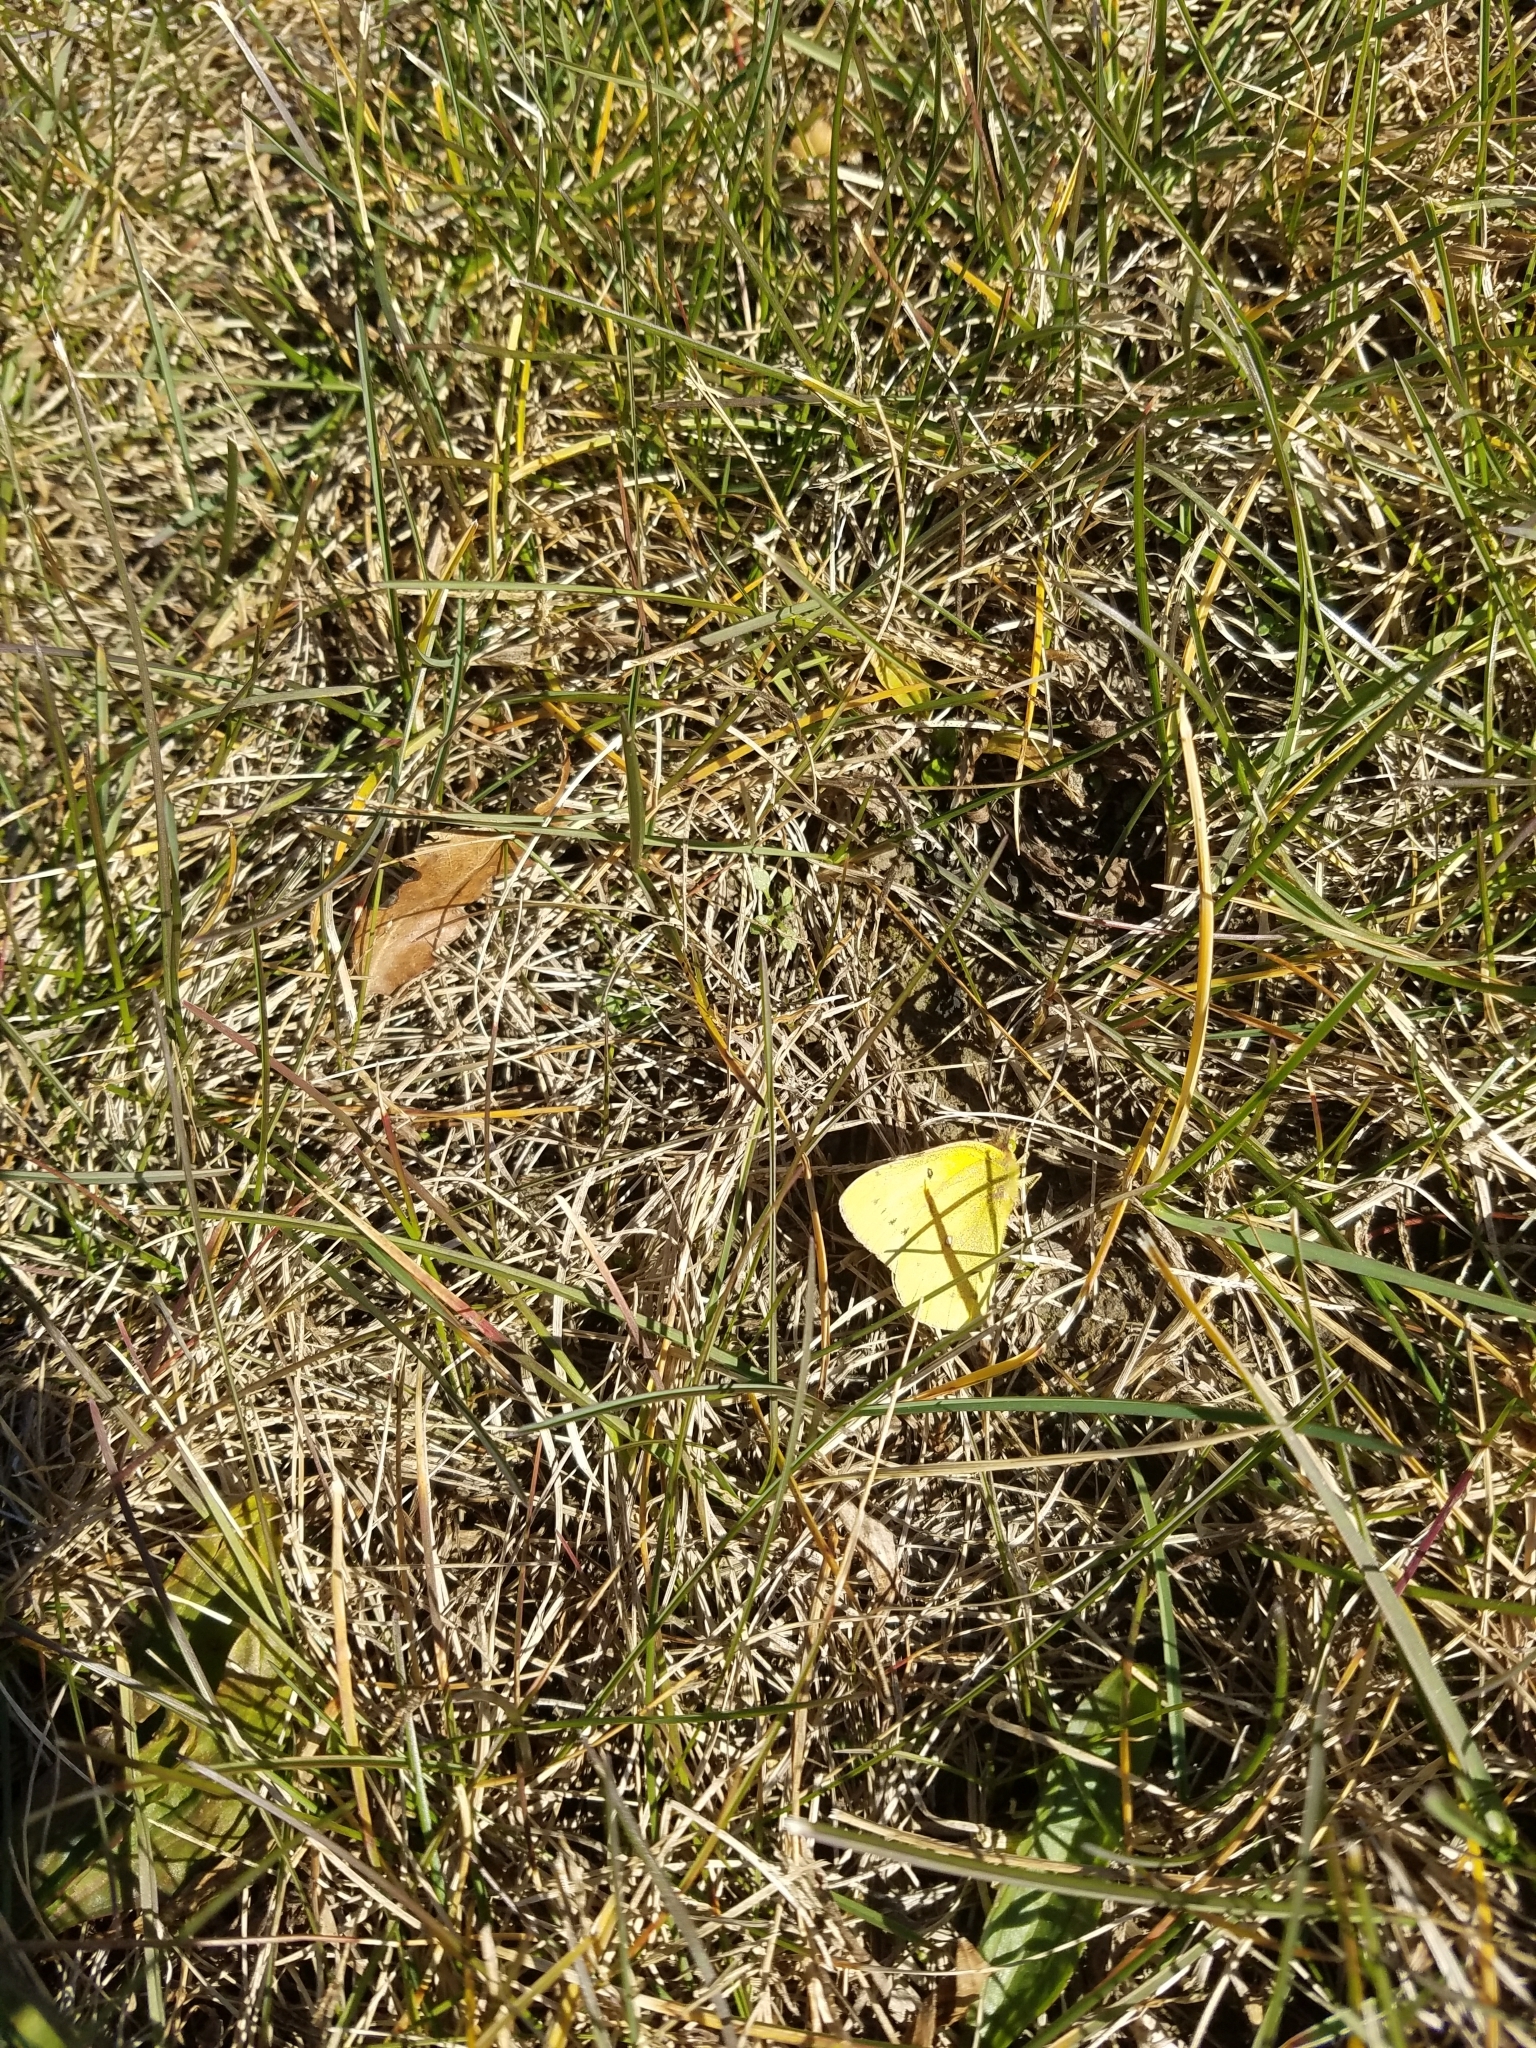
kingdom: Animalia
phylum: Arthropoda
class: Insecta
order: Lepidoptera
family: Pieridae
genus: Colias
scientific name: Colias eurytheme
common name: Alfalfa butterfly
